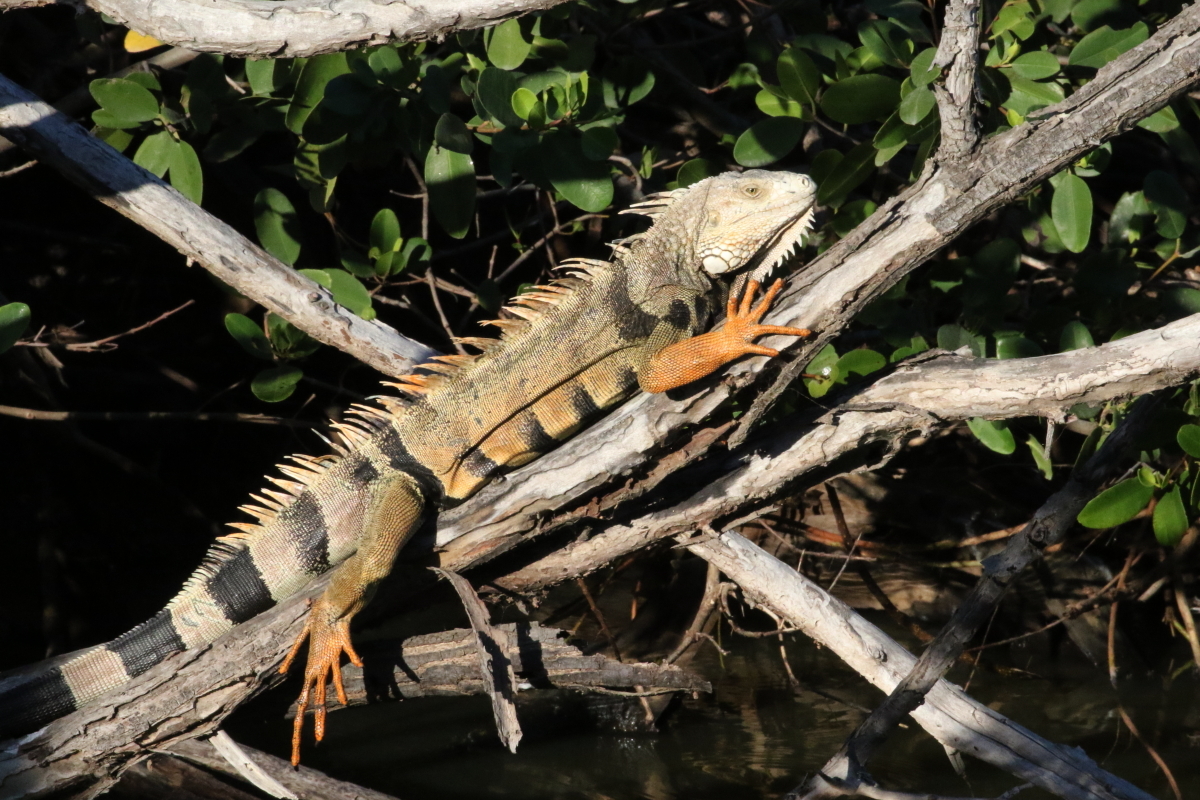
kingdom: Animalia
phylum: Chordata
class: Squamata
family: Iguanidae
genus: Iguana
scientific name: Iguana iguana
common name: Green iguana
